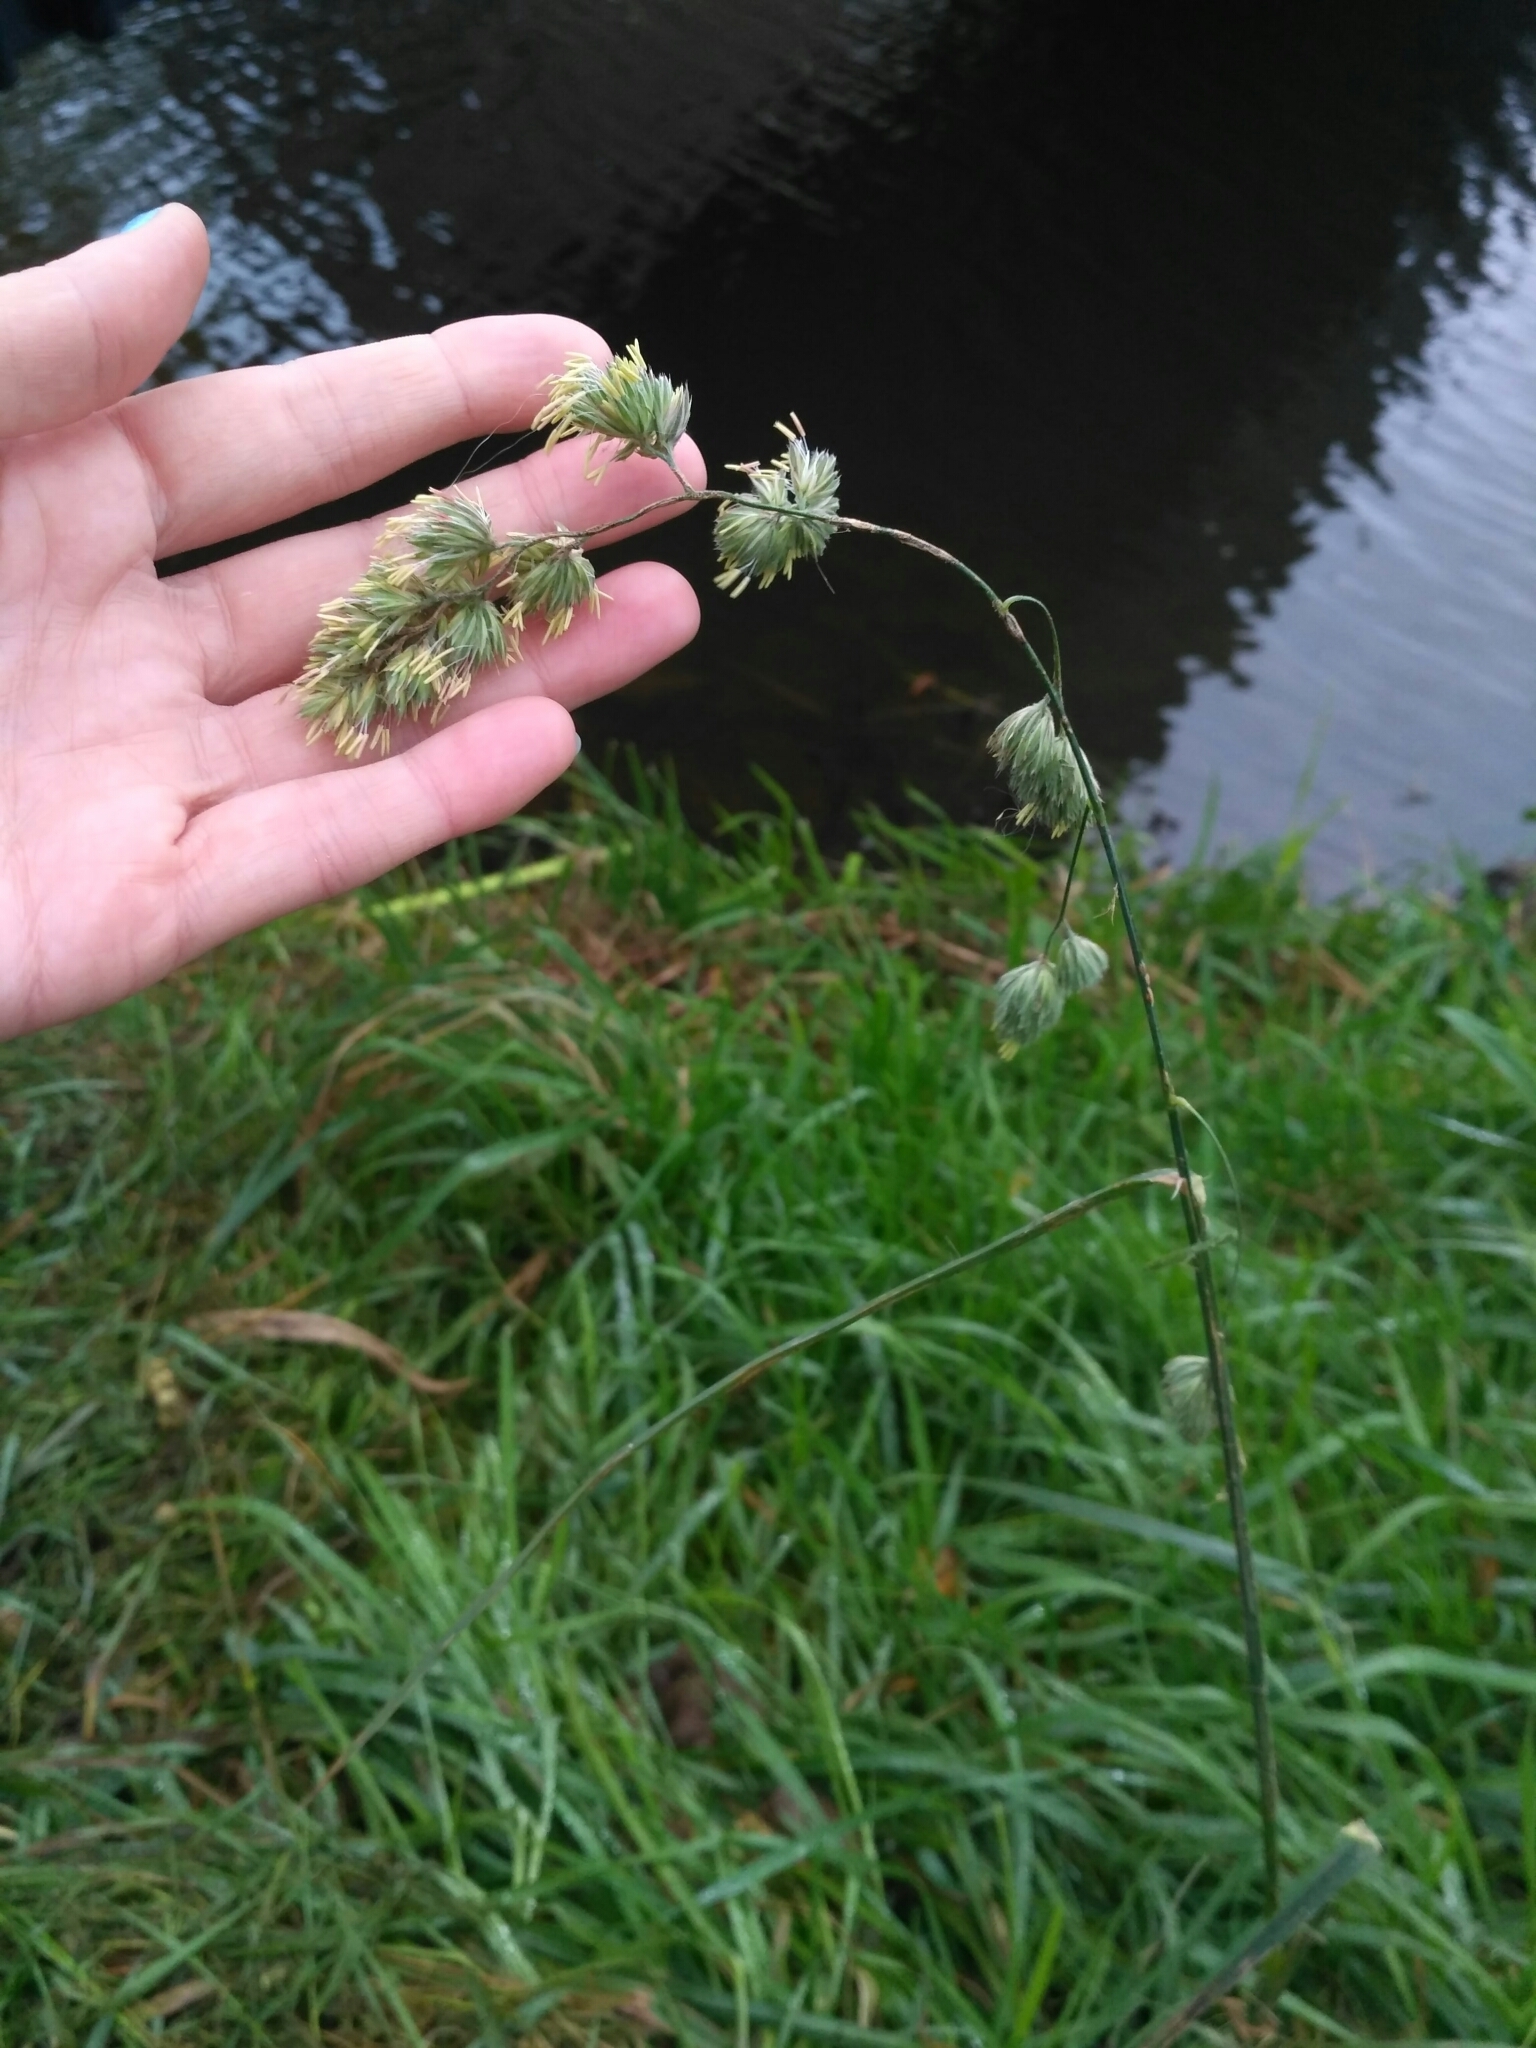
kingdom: Plantae
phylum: Tracheophyta
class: Liliopsida
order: Poales
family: Poaceae
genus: Dactylis
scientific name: Dactylis glomerata
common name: Orchardgrass
